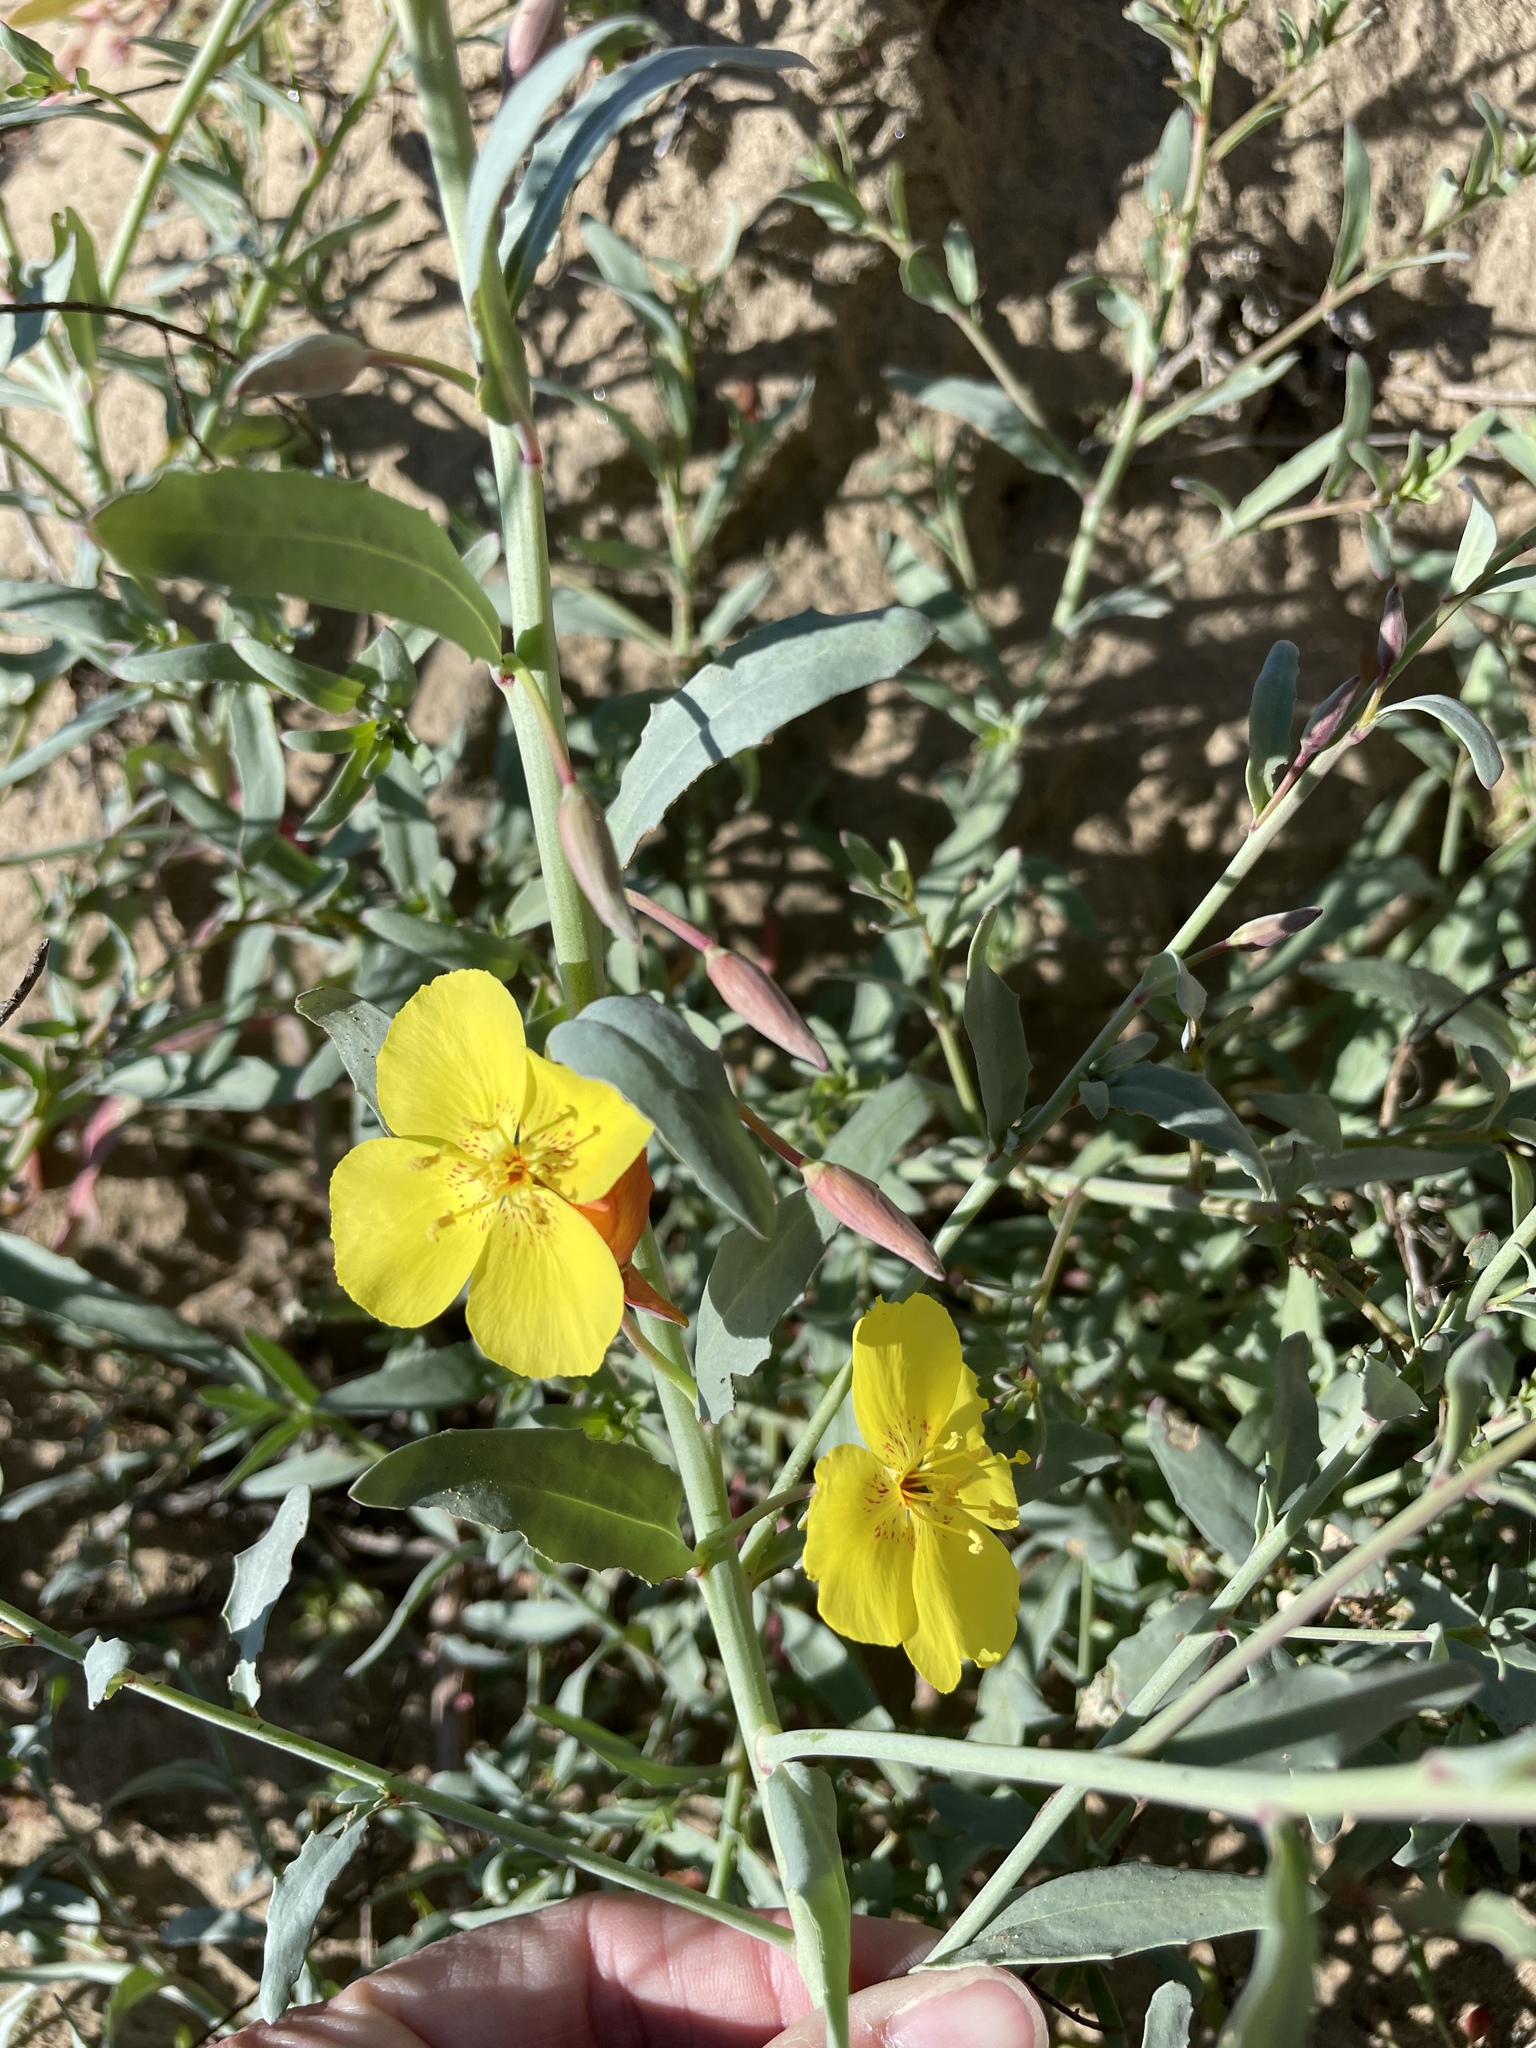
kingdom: Plantae
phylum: Tracheophyta
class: Magnoliopsida
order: Myrtales
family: Onagraceae
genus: Eulobus
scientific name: Eulobus crassifolius
